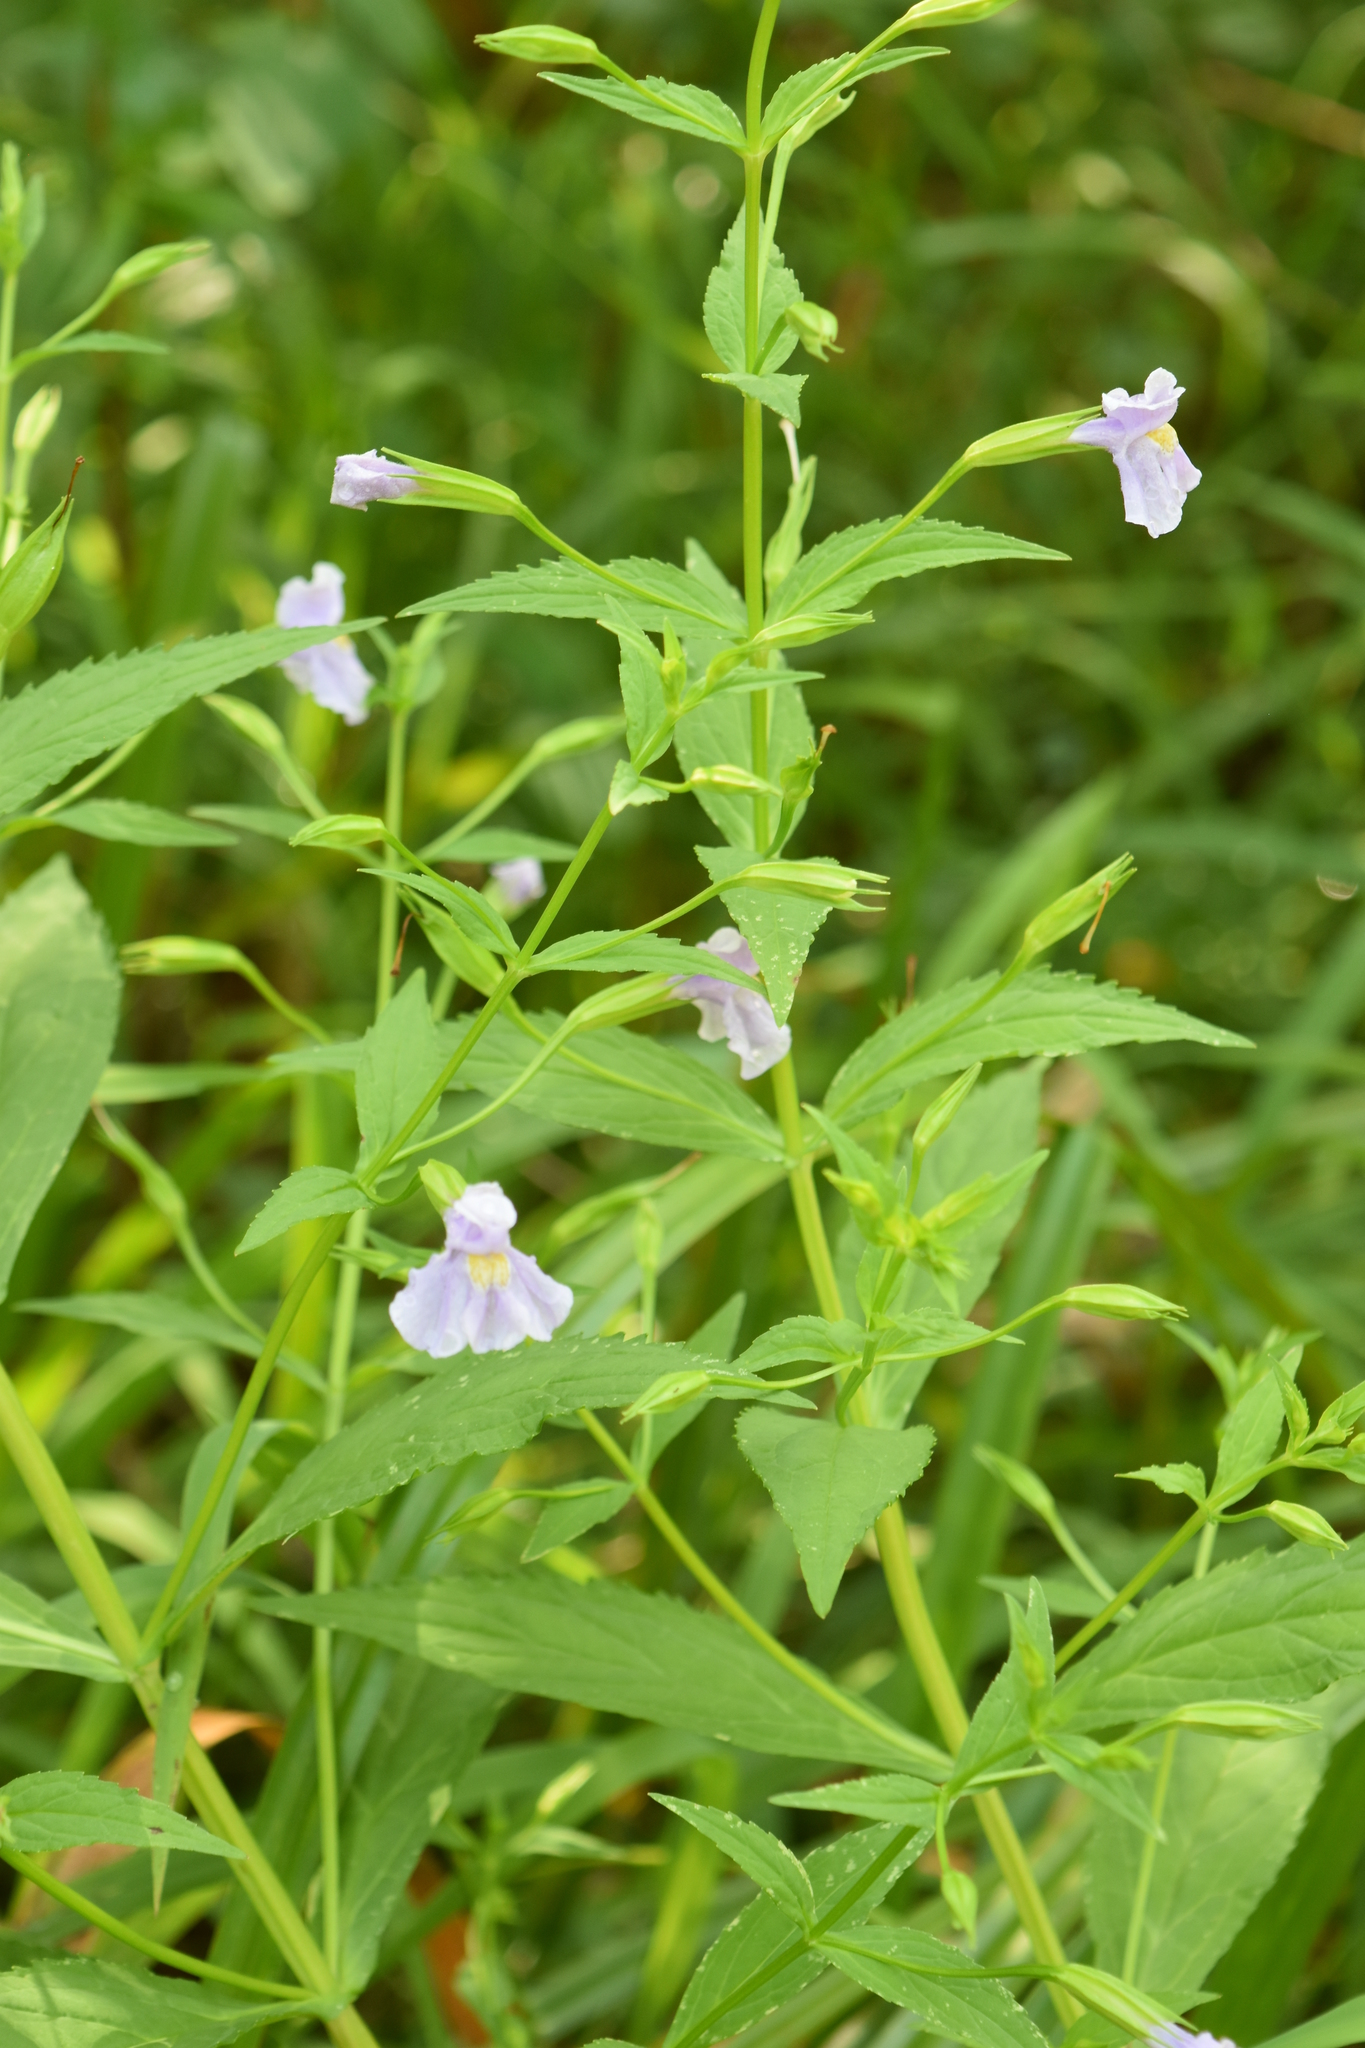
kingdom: Plantae
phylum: Tracheophyta
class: Magnoliopsida
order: Lamiales
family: Phrymaceae
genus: Mimulus
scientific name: Mimulus ringens
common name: Allegheny monkeyflower
